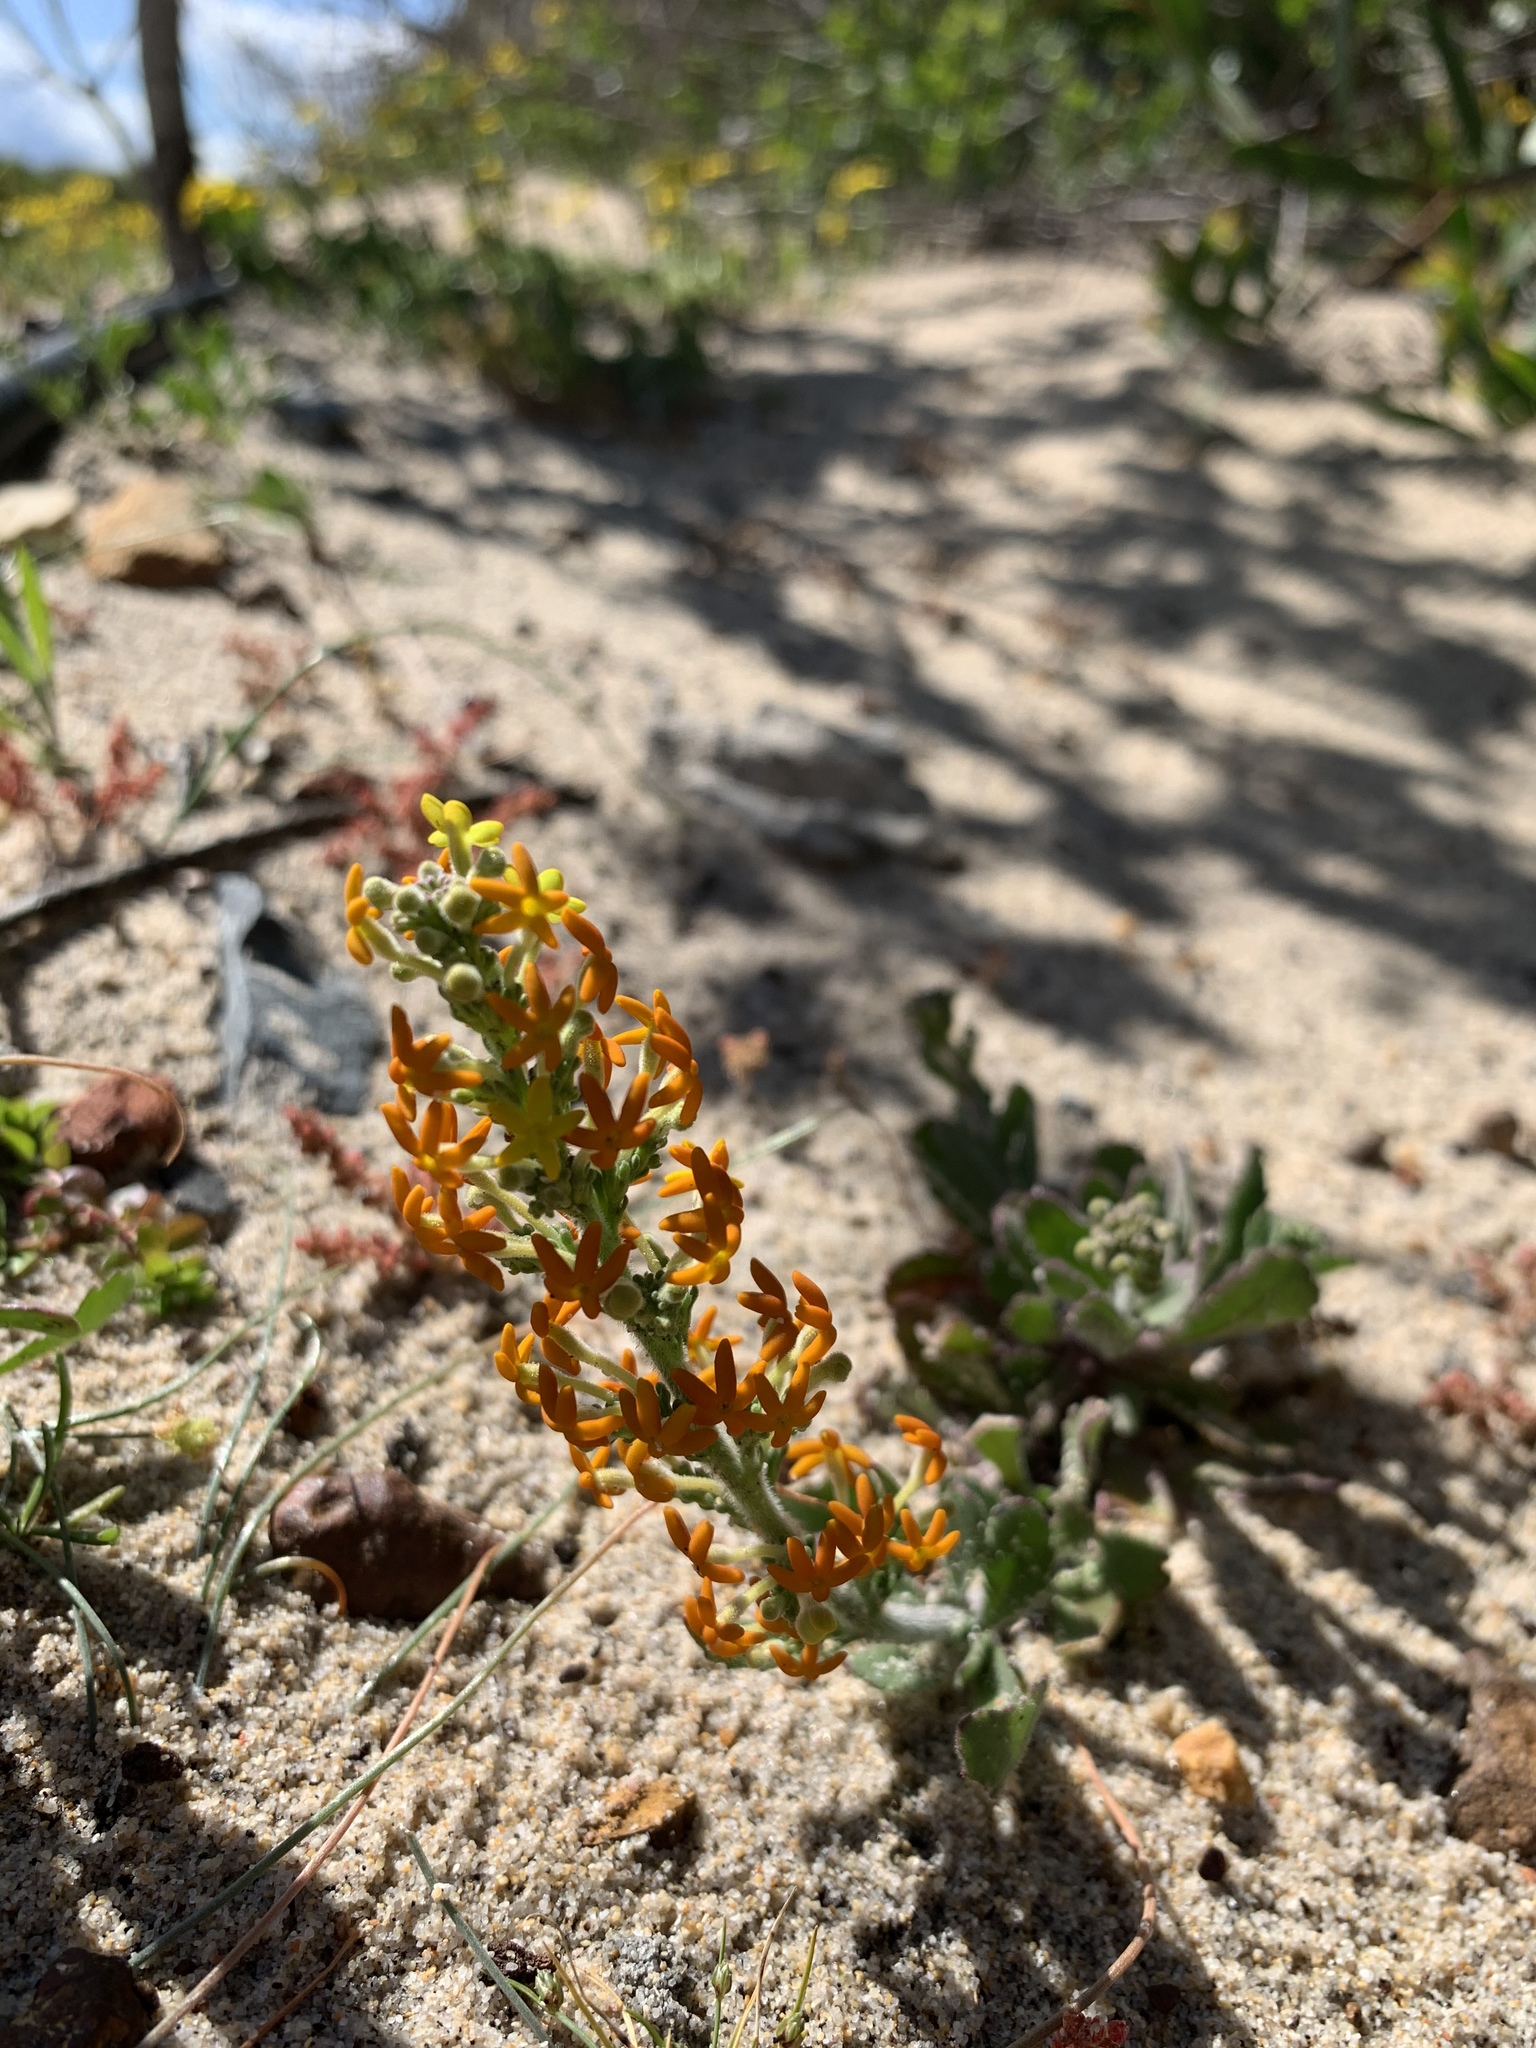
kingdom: Plantae
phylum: Tracheophyta
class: Magnoliopsida
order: Lamiales
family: Scrophulariaceae
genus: Manulea
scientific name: Manulea tomentosa
